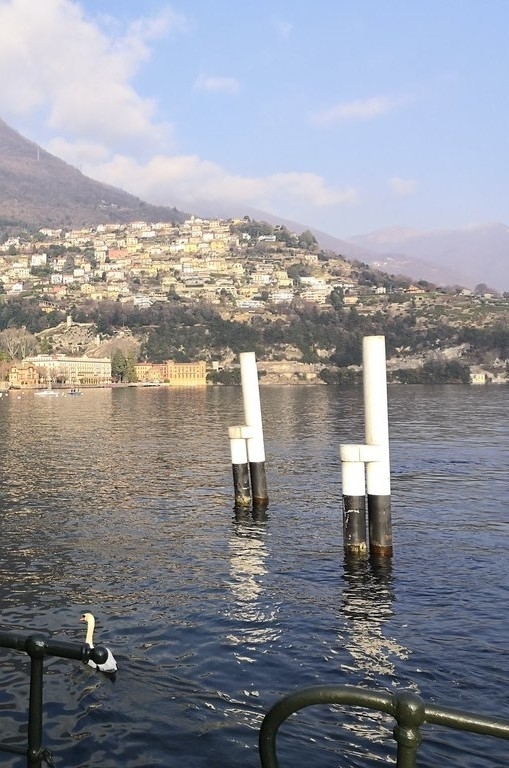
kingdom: Animalia
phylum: Chordata
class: Aves
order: Anseriformes
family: Anatidae
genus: Cygnus
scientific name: Cygnus olor
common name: Mute swan
